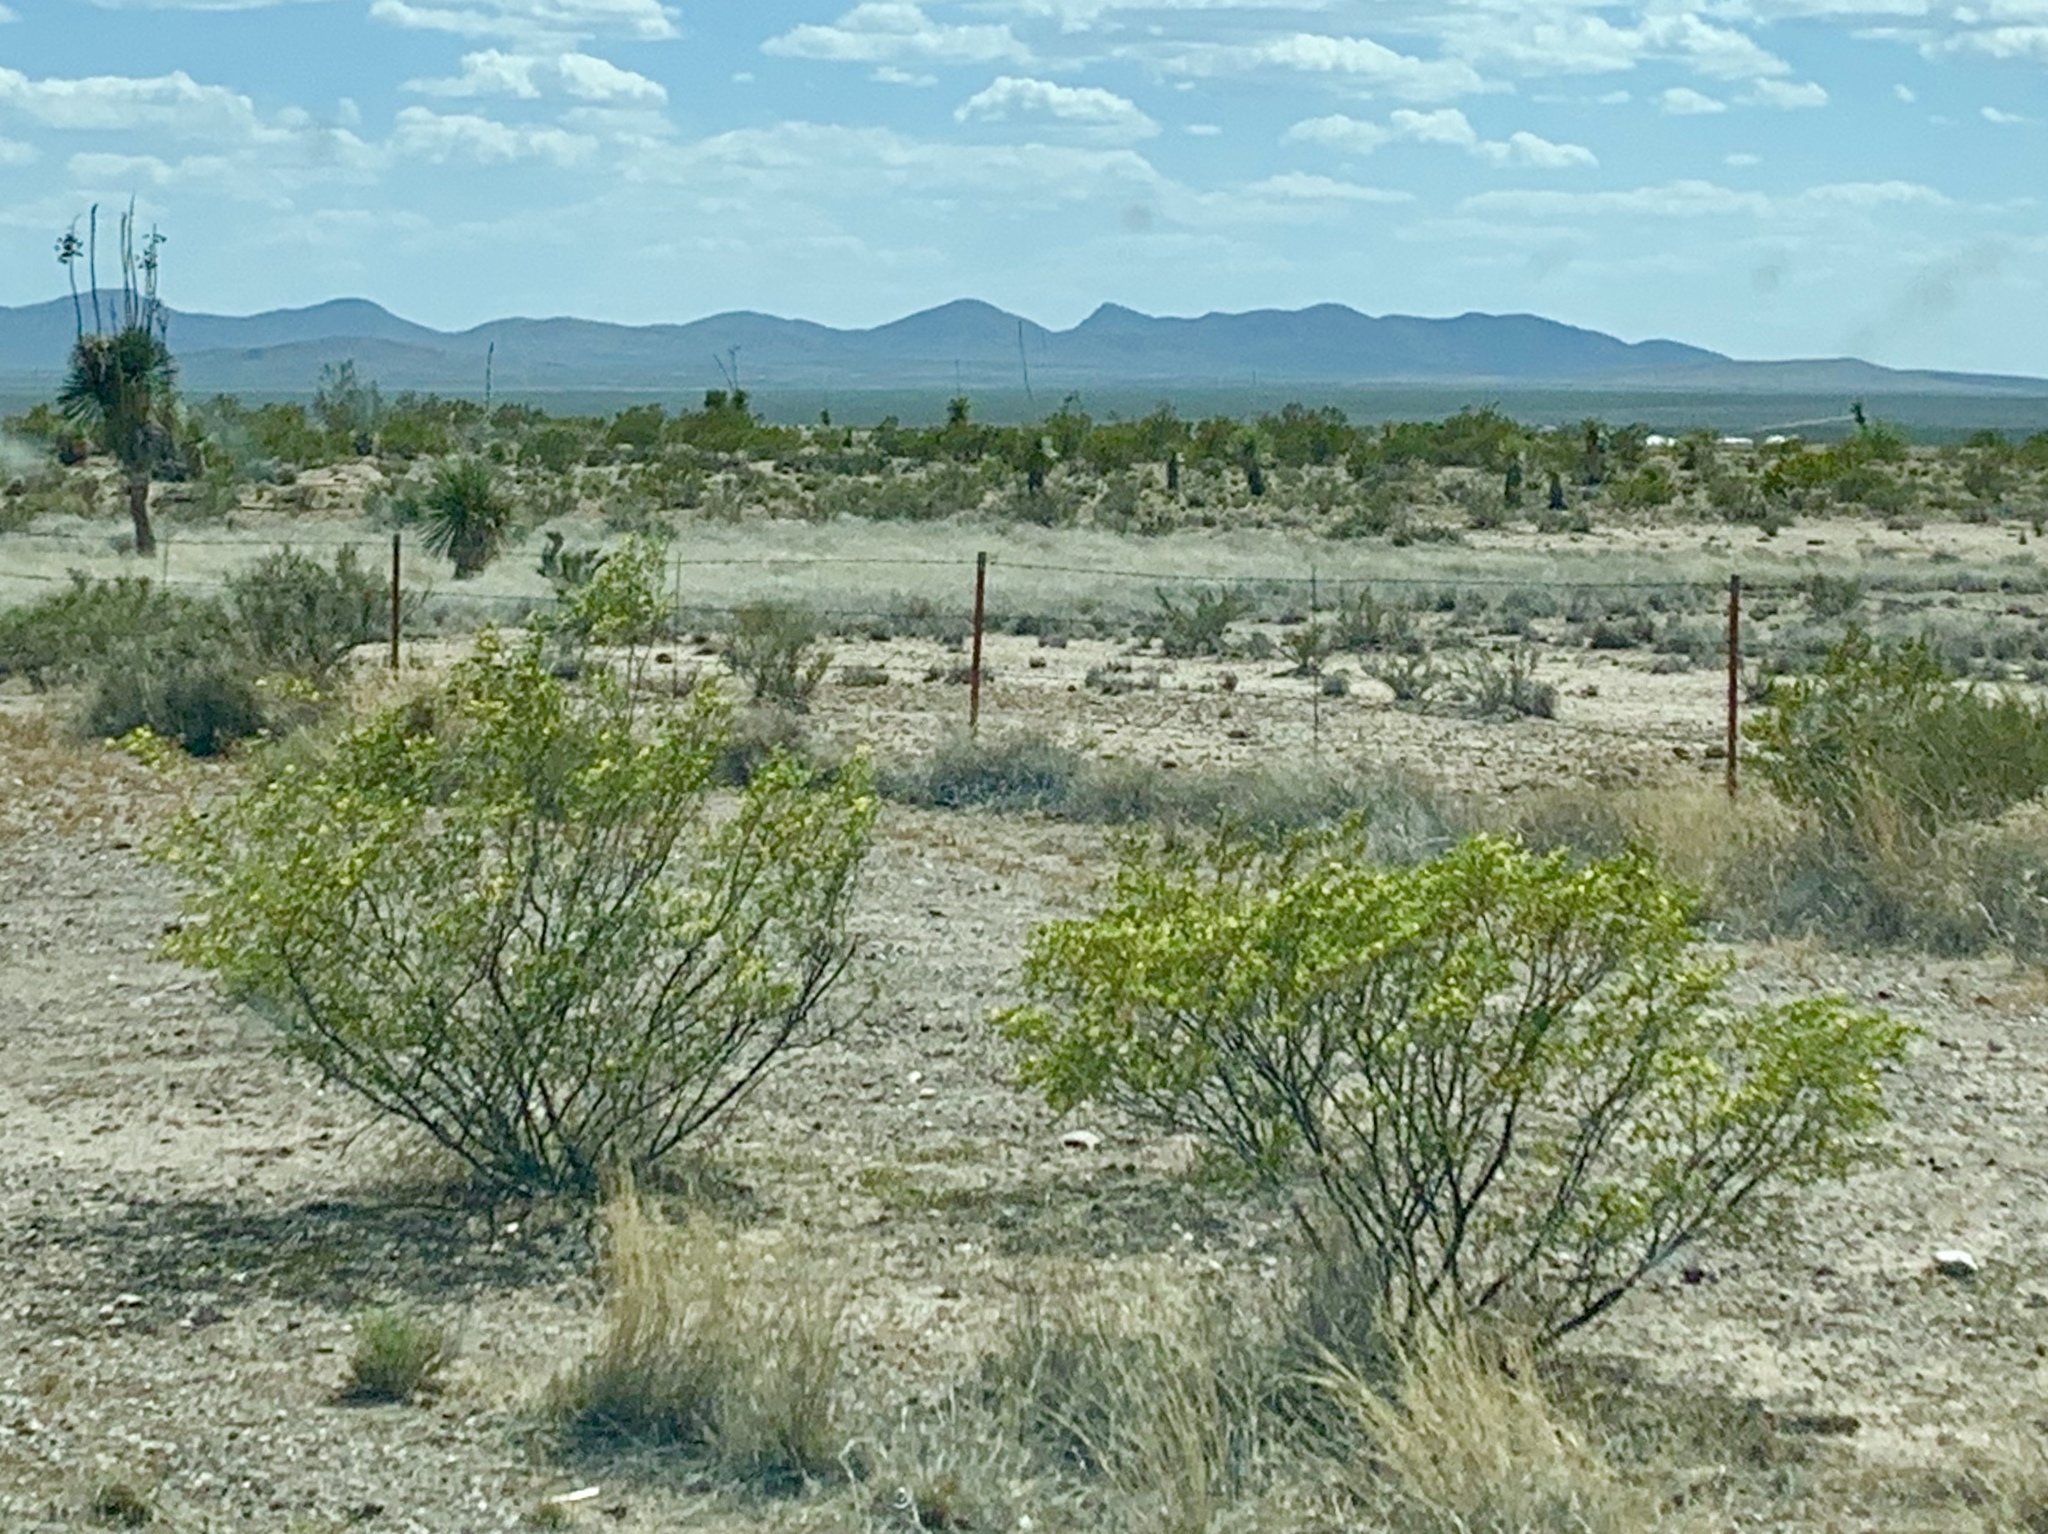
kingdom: Plantae
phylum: Tracheophyta
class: Magnoliopsida
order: Zygophyllales
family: Zygophyllaceae
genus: Larrea
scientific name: Larrea tridentata
